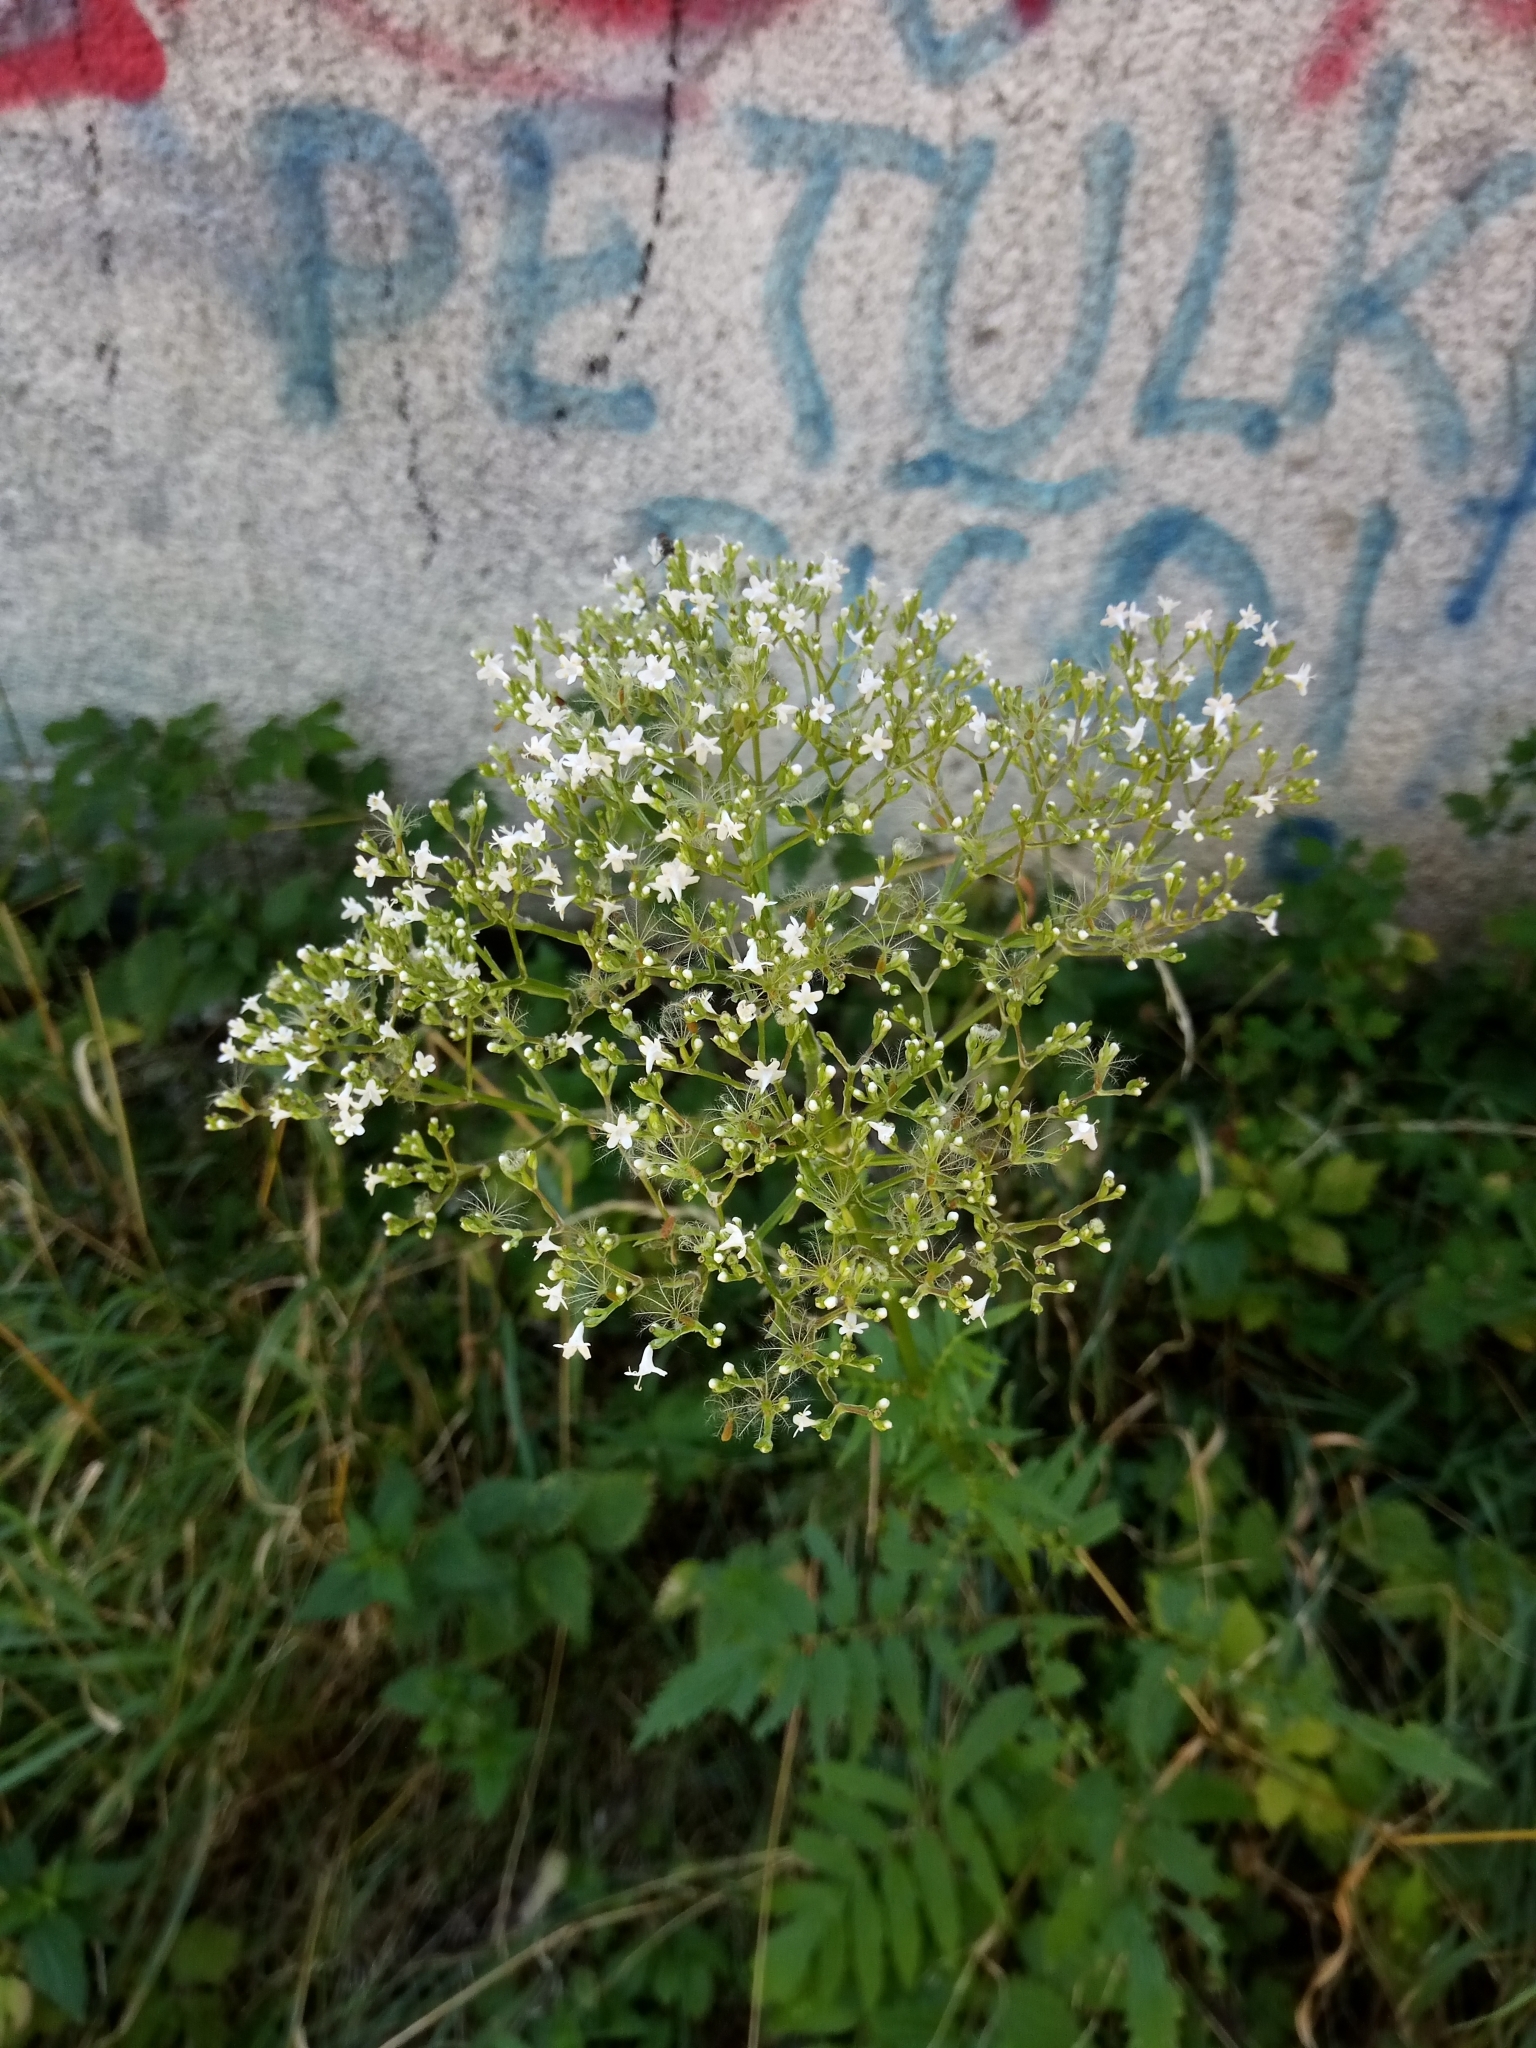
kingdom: Plantae
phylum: Tracheophyta
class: Magnoliopsida
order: Dipsacales
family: Caprifoliaceae
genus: Valeriana
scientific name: Valeriana officinalis
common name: Common valerian
